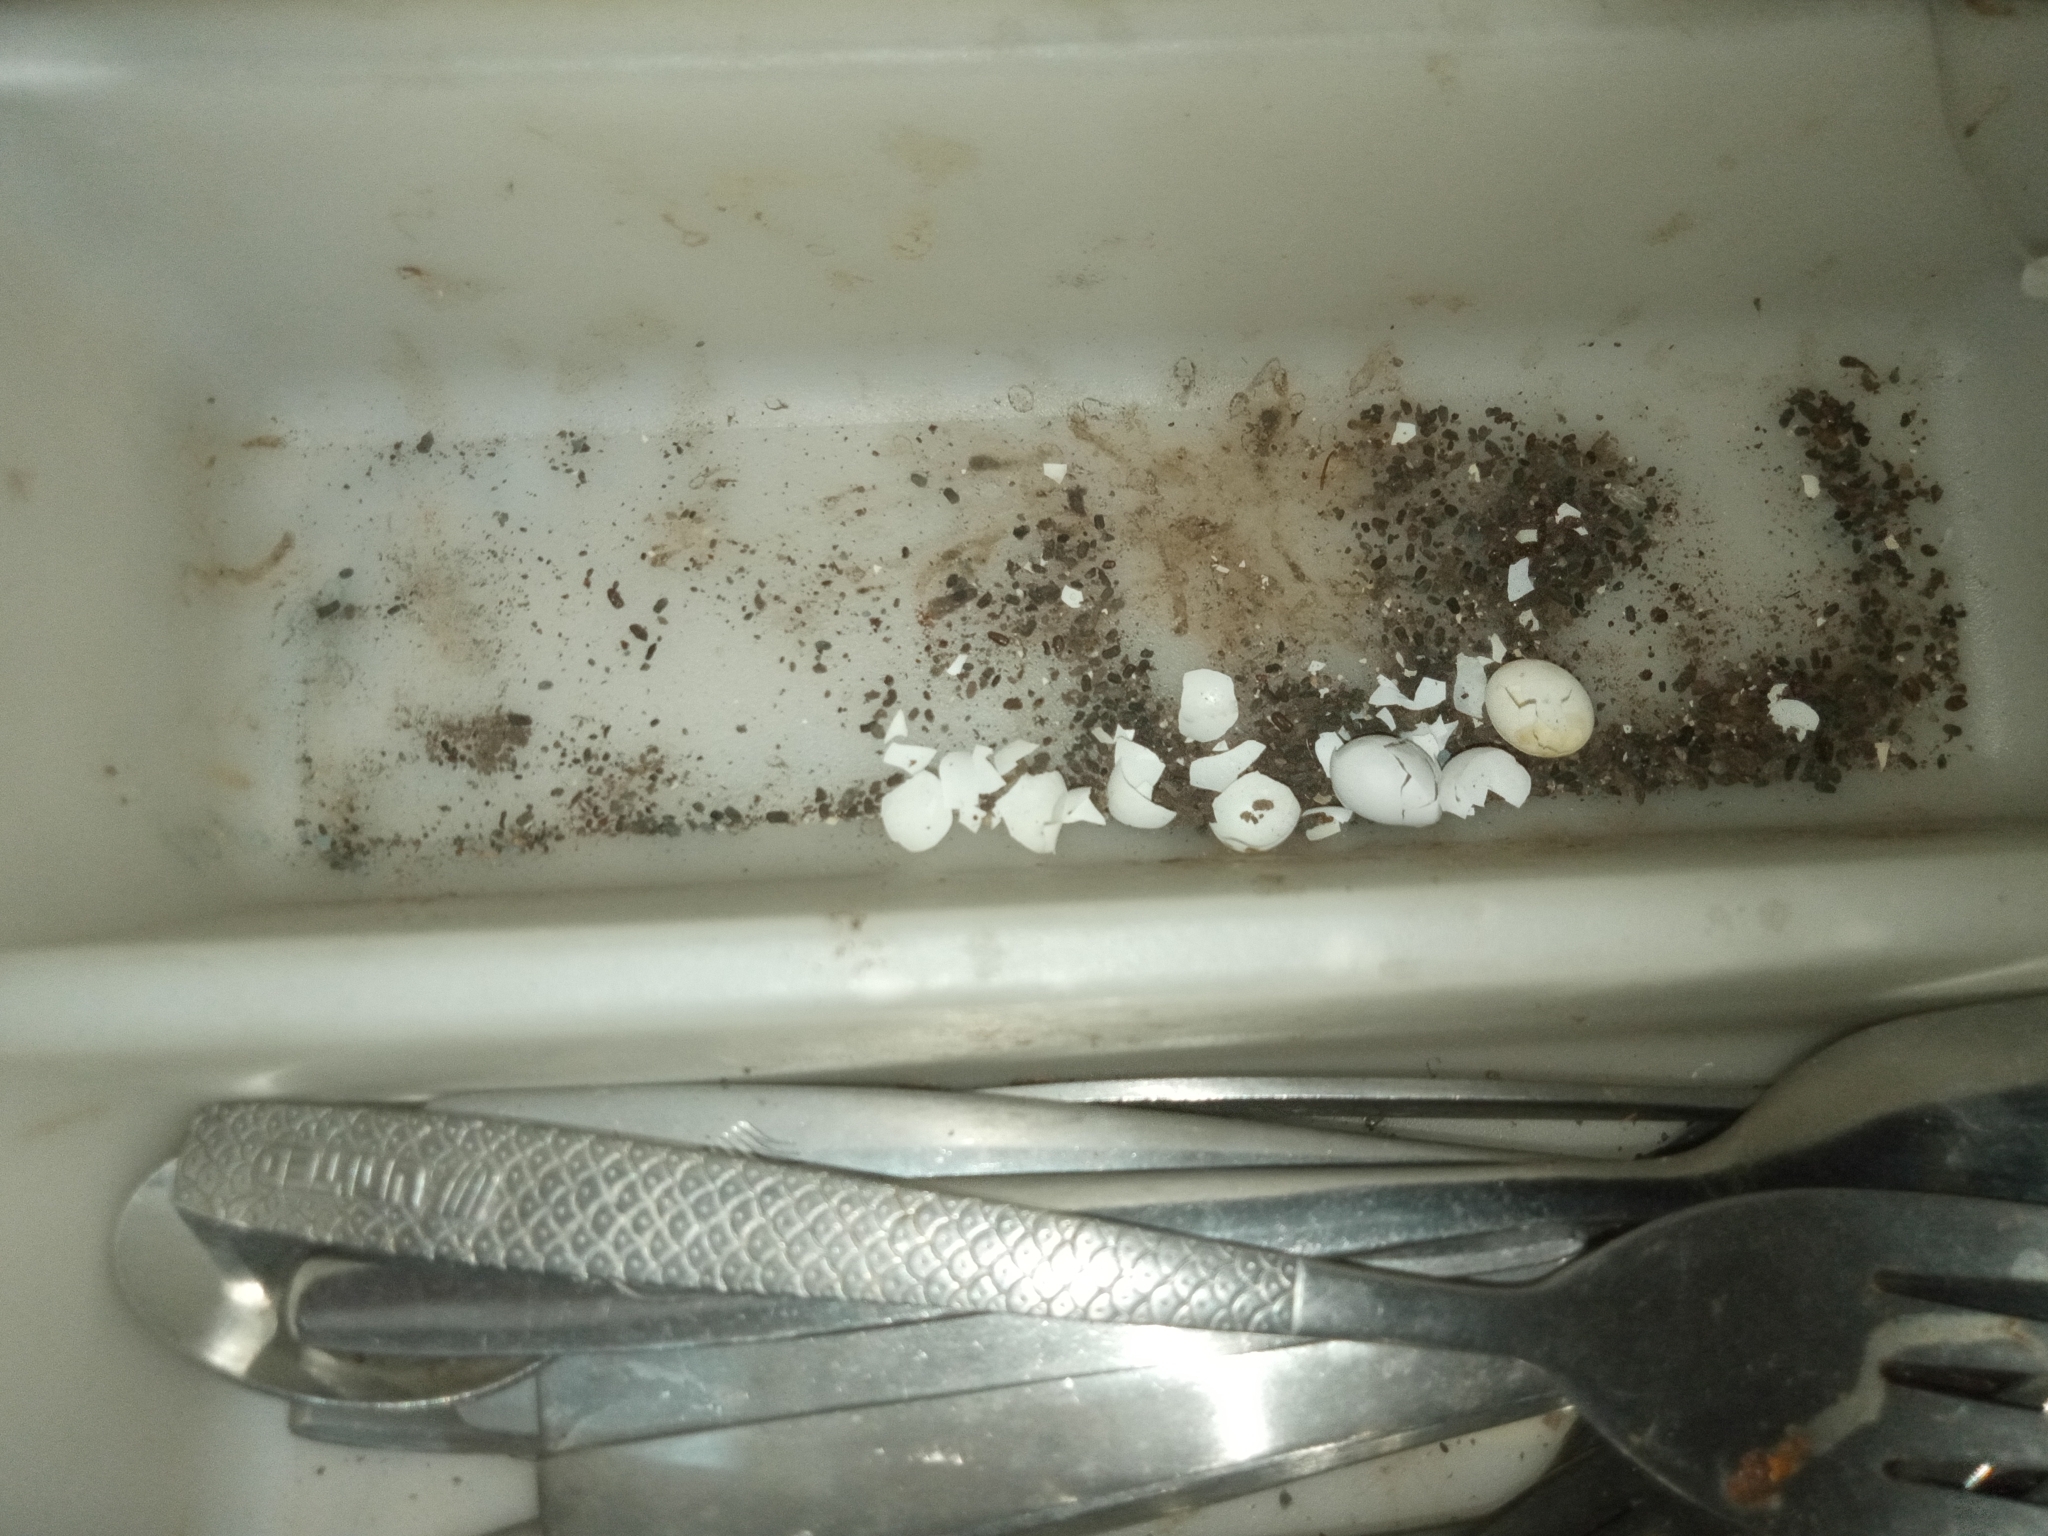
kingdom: Animalia
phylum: Chordata
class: Squamata
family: Gekkonidae
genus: Hemidactylus
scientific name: Hemidactylus frenatus
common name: Common house gecko
